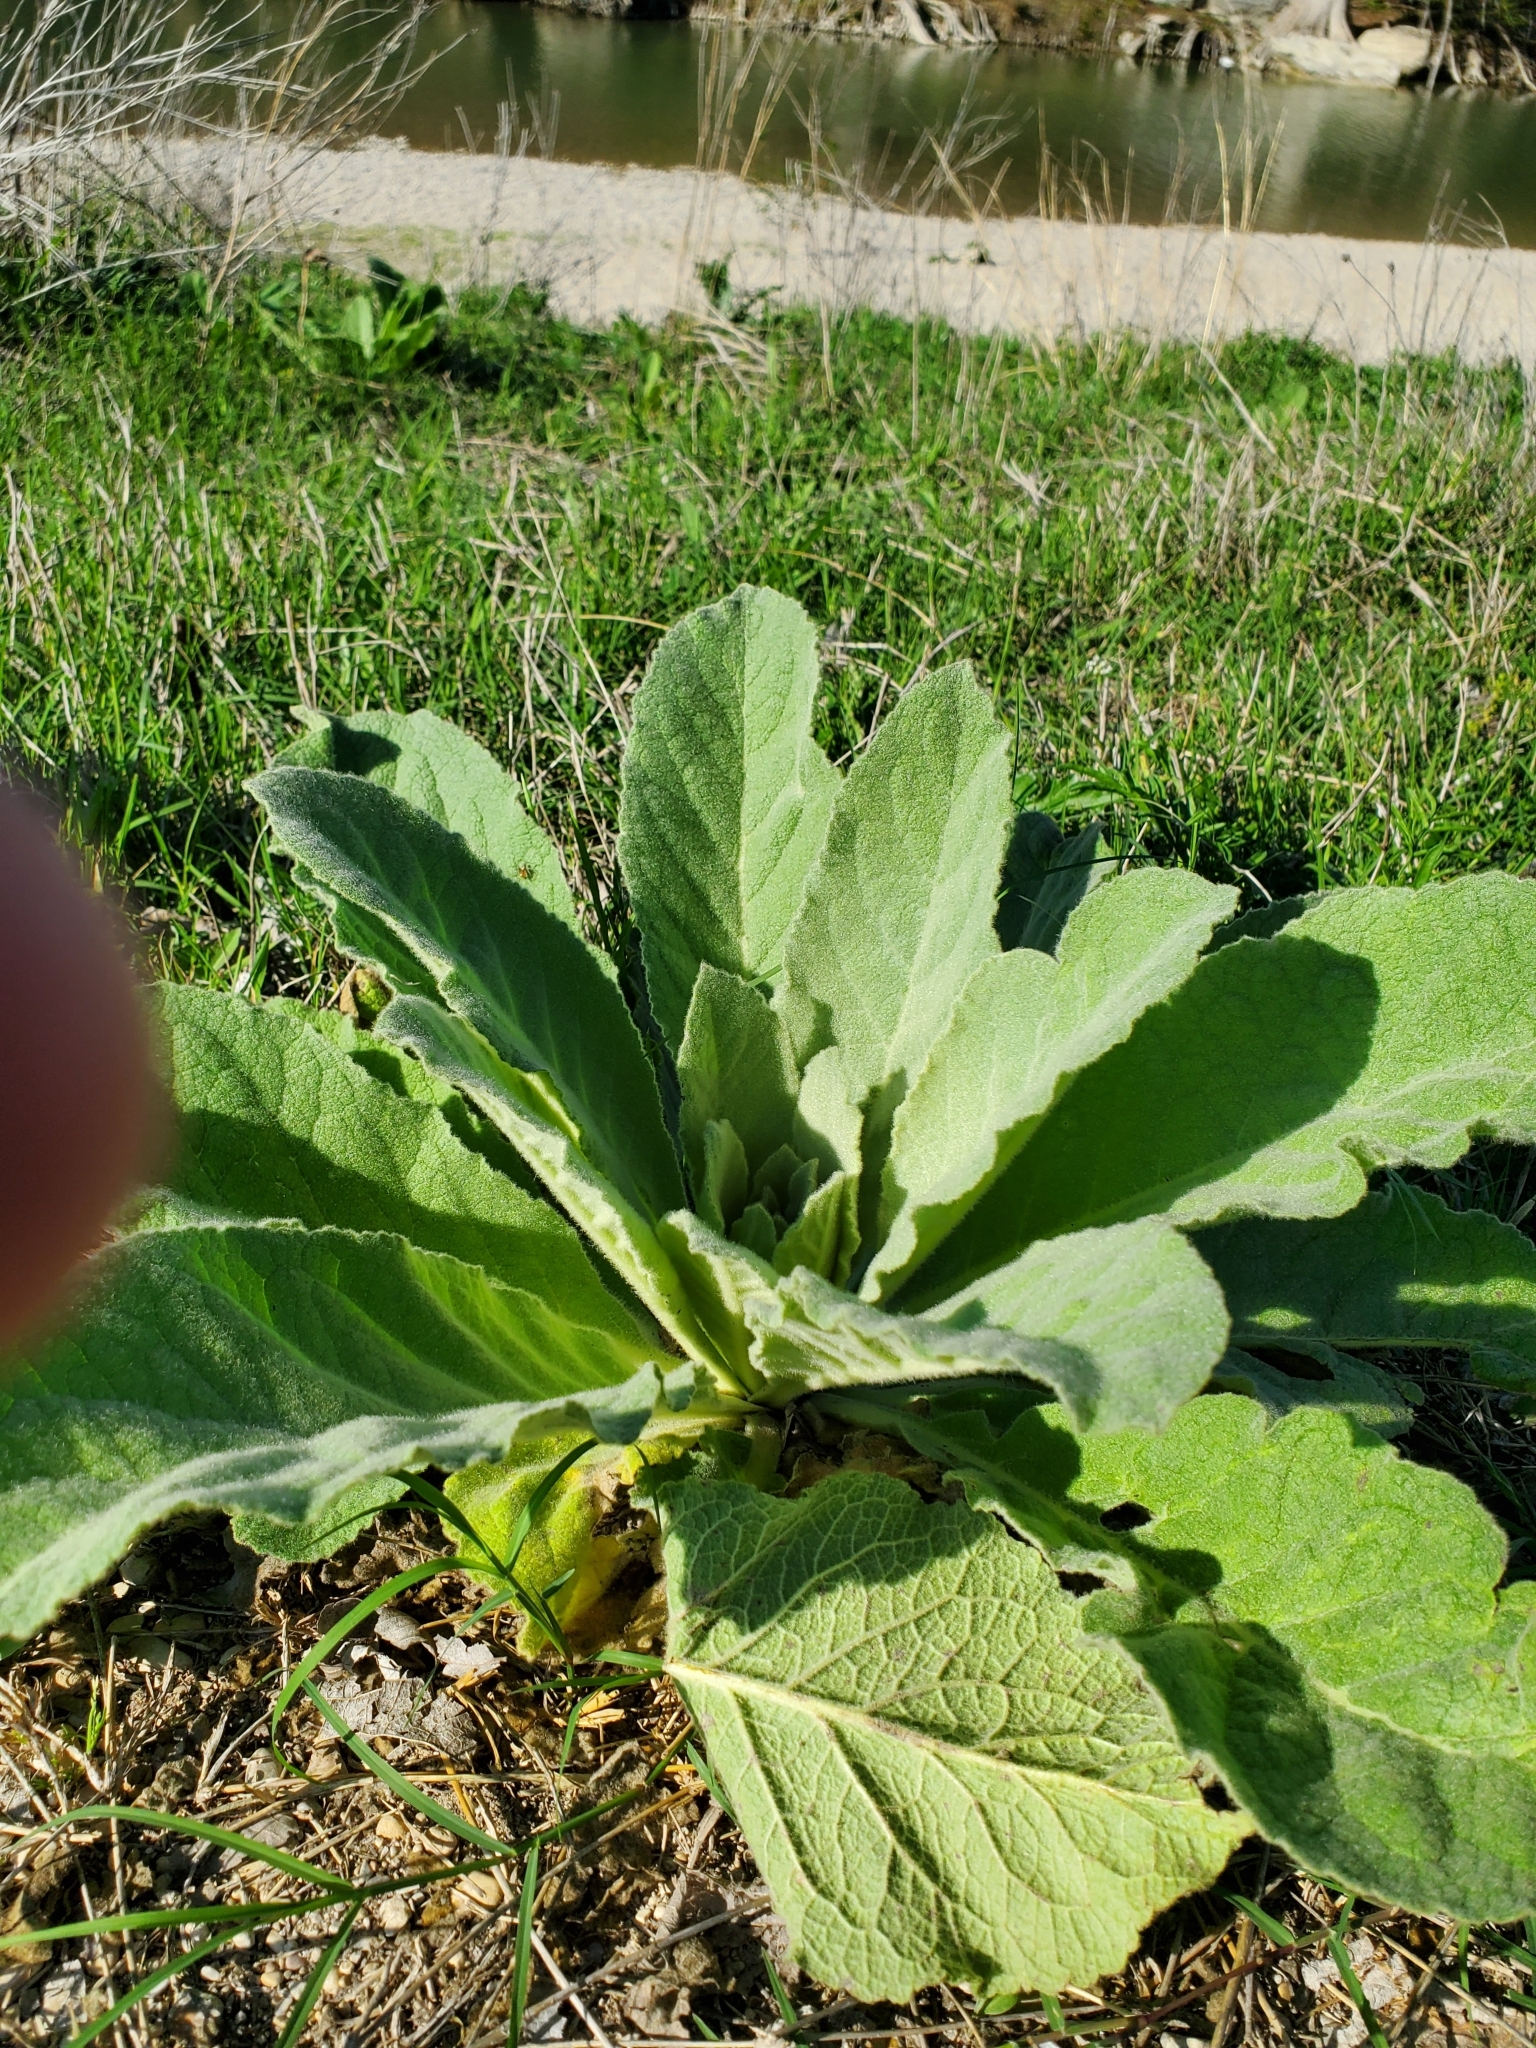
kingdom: Plantae
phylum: Tracheophyta
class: Magnoliopsida
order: Lamiales
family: Scrophulariaceae
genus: Verbascum
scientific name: Verbascum thapsus
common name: Common mullein
